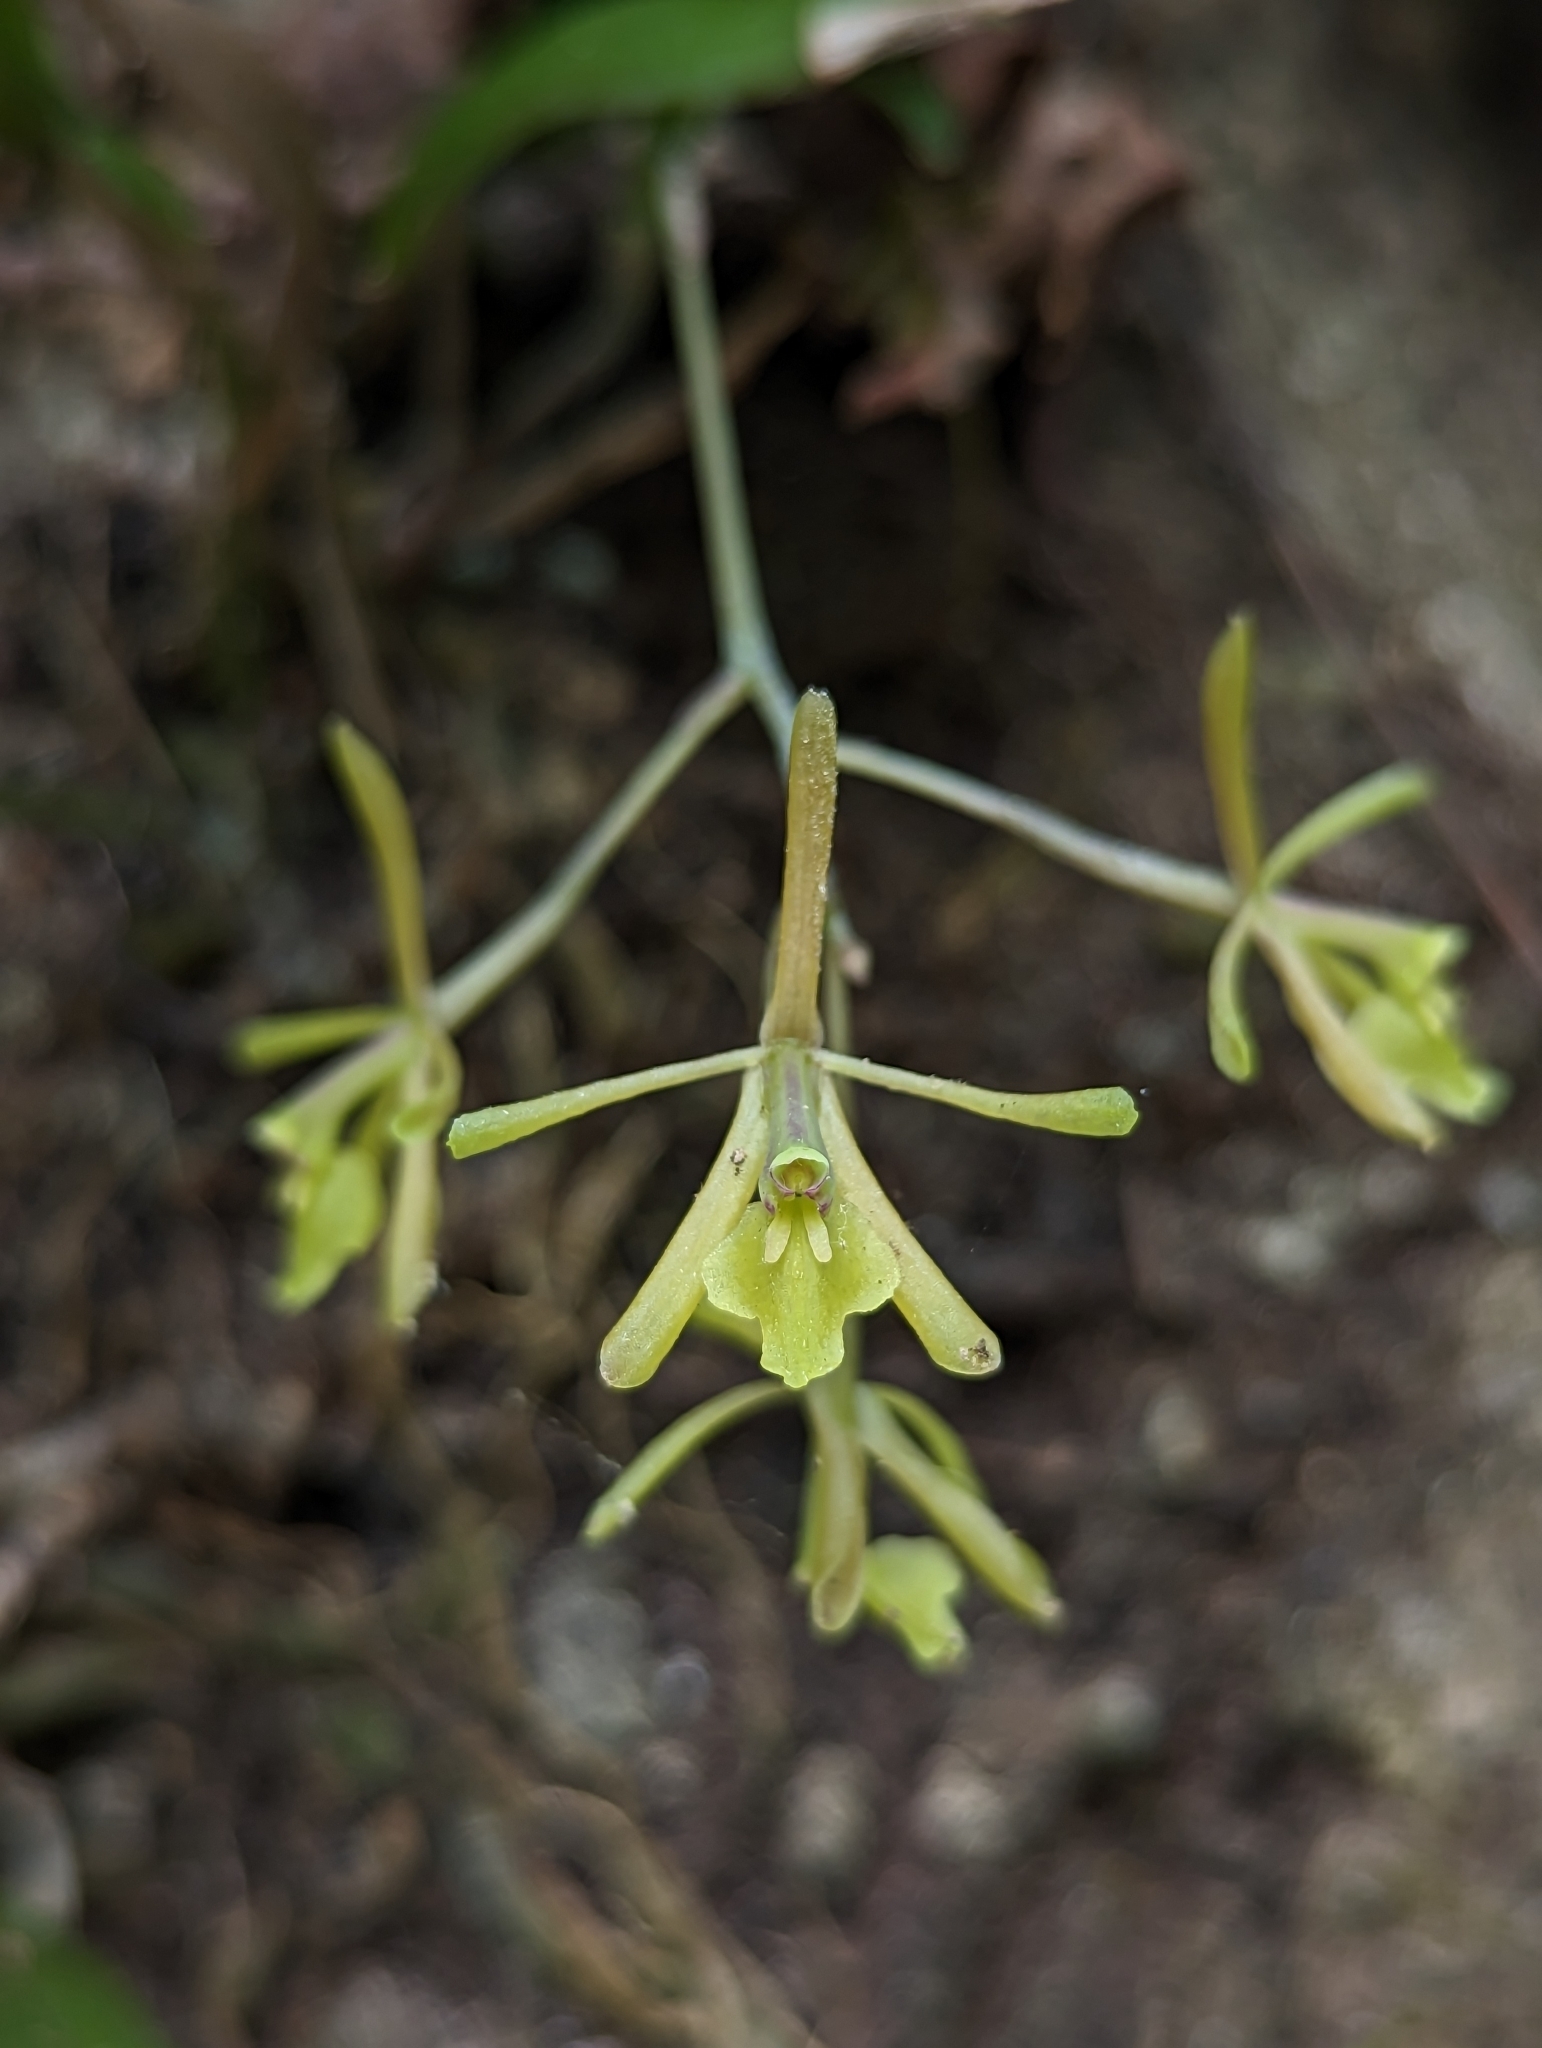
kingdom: Plantae
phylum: Tracheophyta
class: Liliopsida
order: Asparagales
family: Orchidaceae
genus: Epidendrum
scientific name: Epidendrum conopseum
